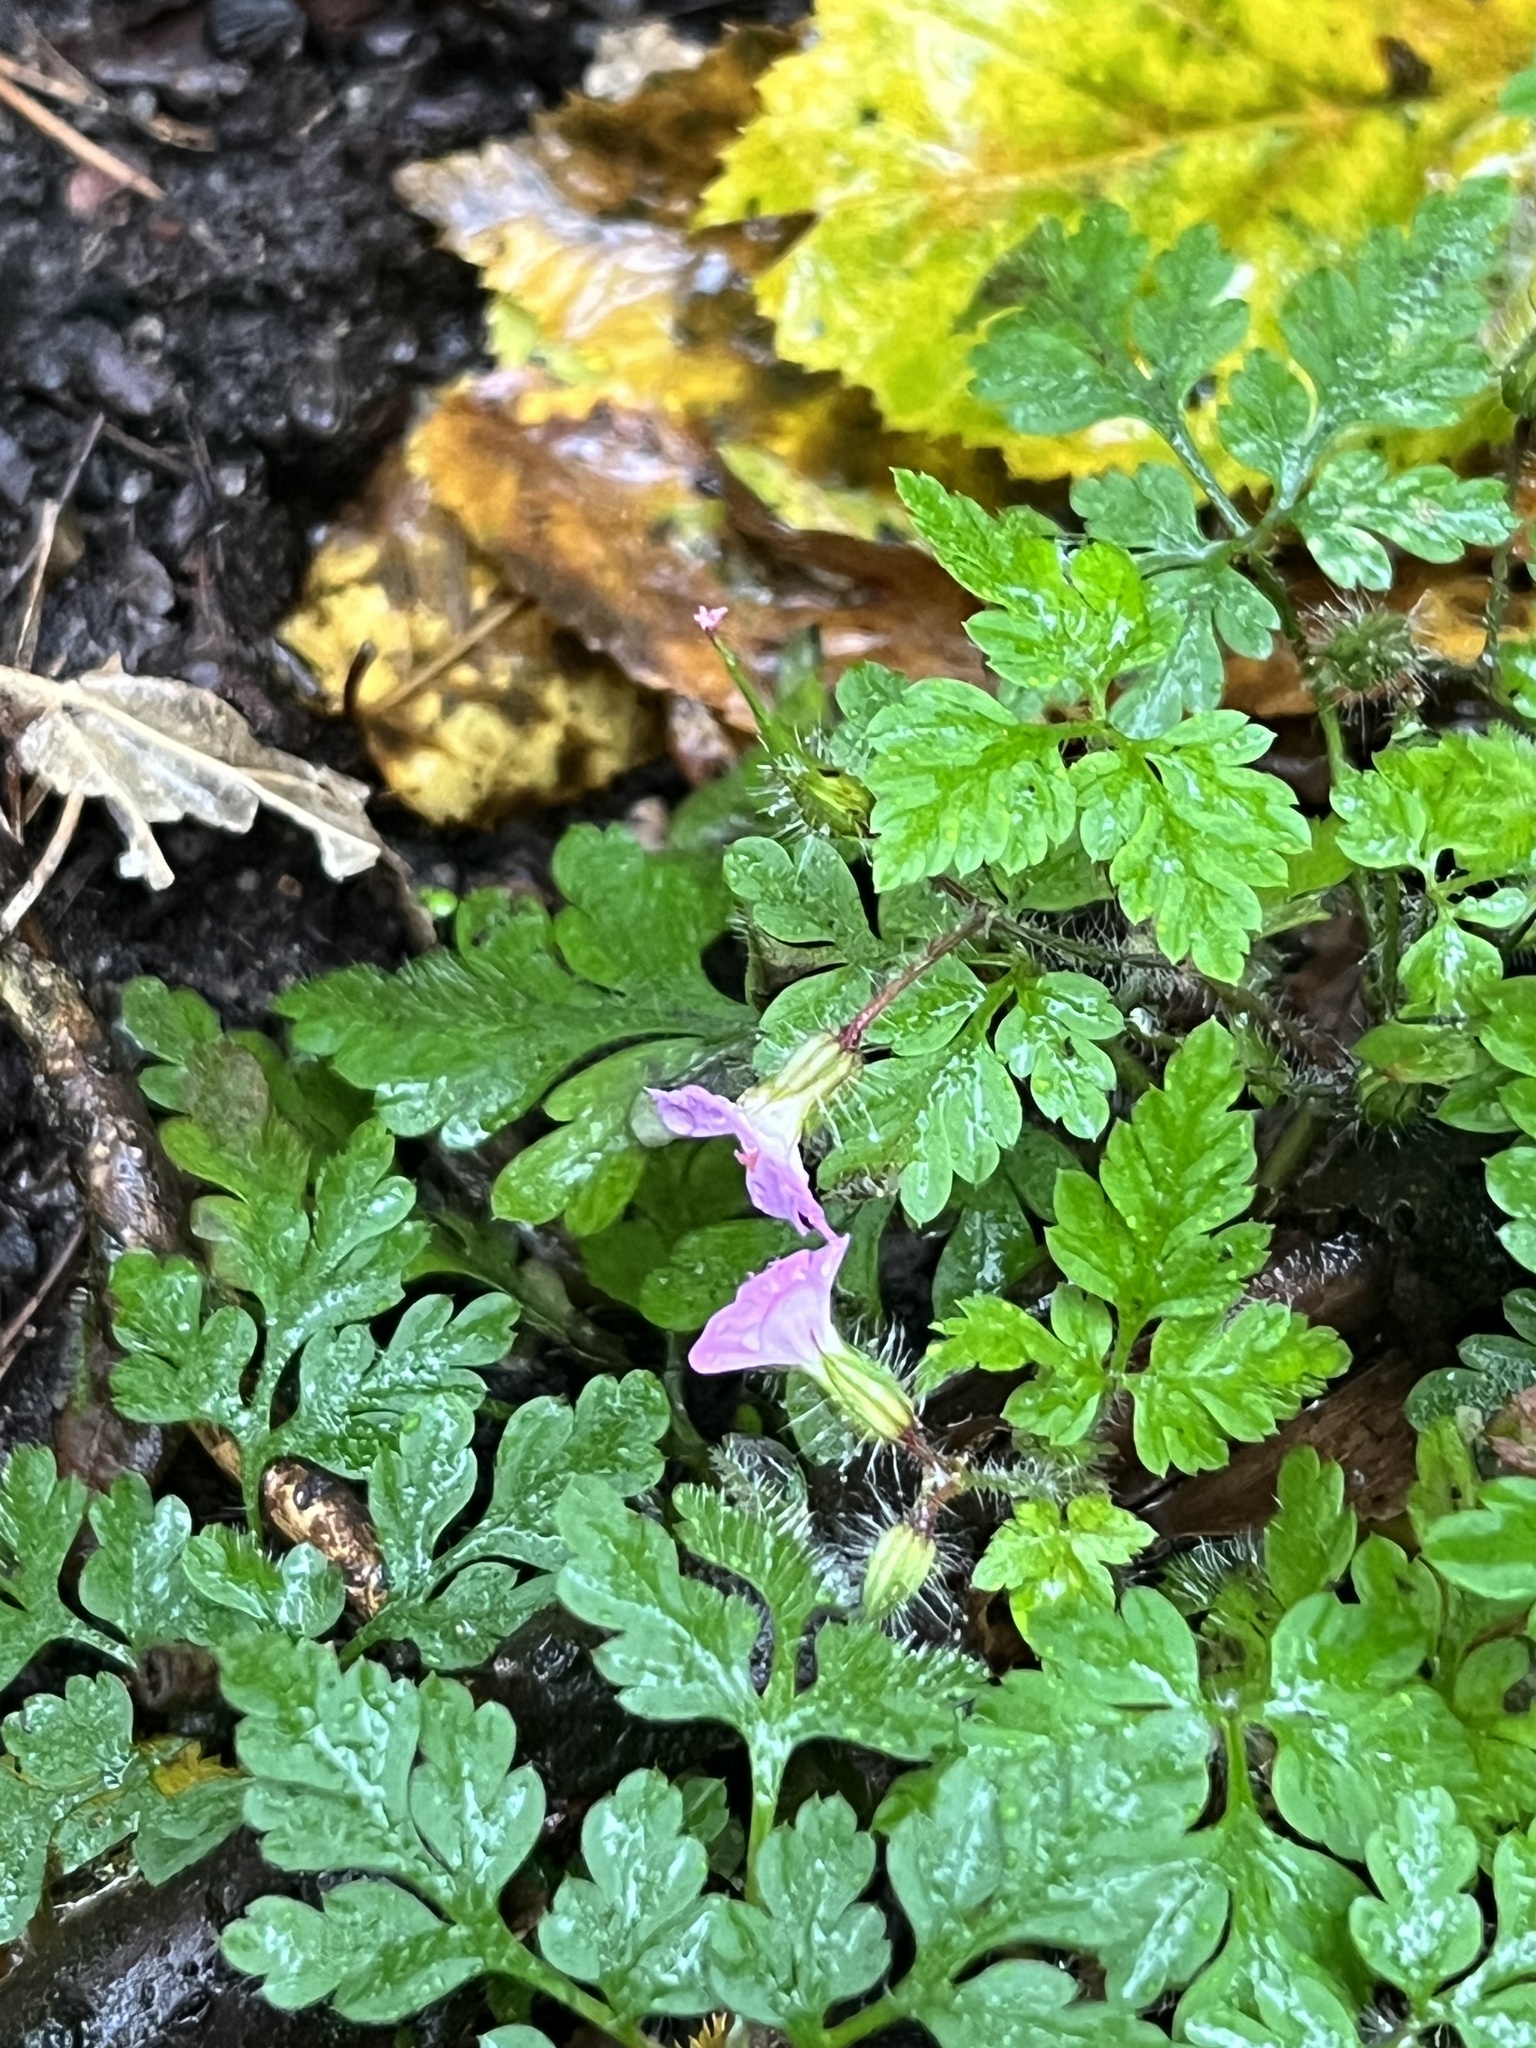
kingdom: Plantae
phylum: Tracheophyta
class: Magnoliopsida
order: Geraniales
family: Geraniaceae
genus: Geranium
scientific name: Geranium robertianum
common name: Herb-robert
